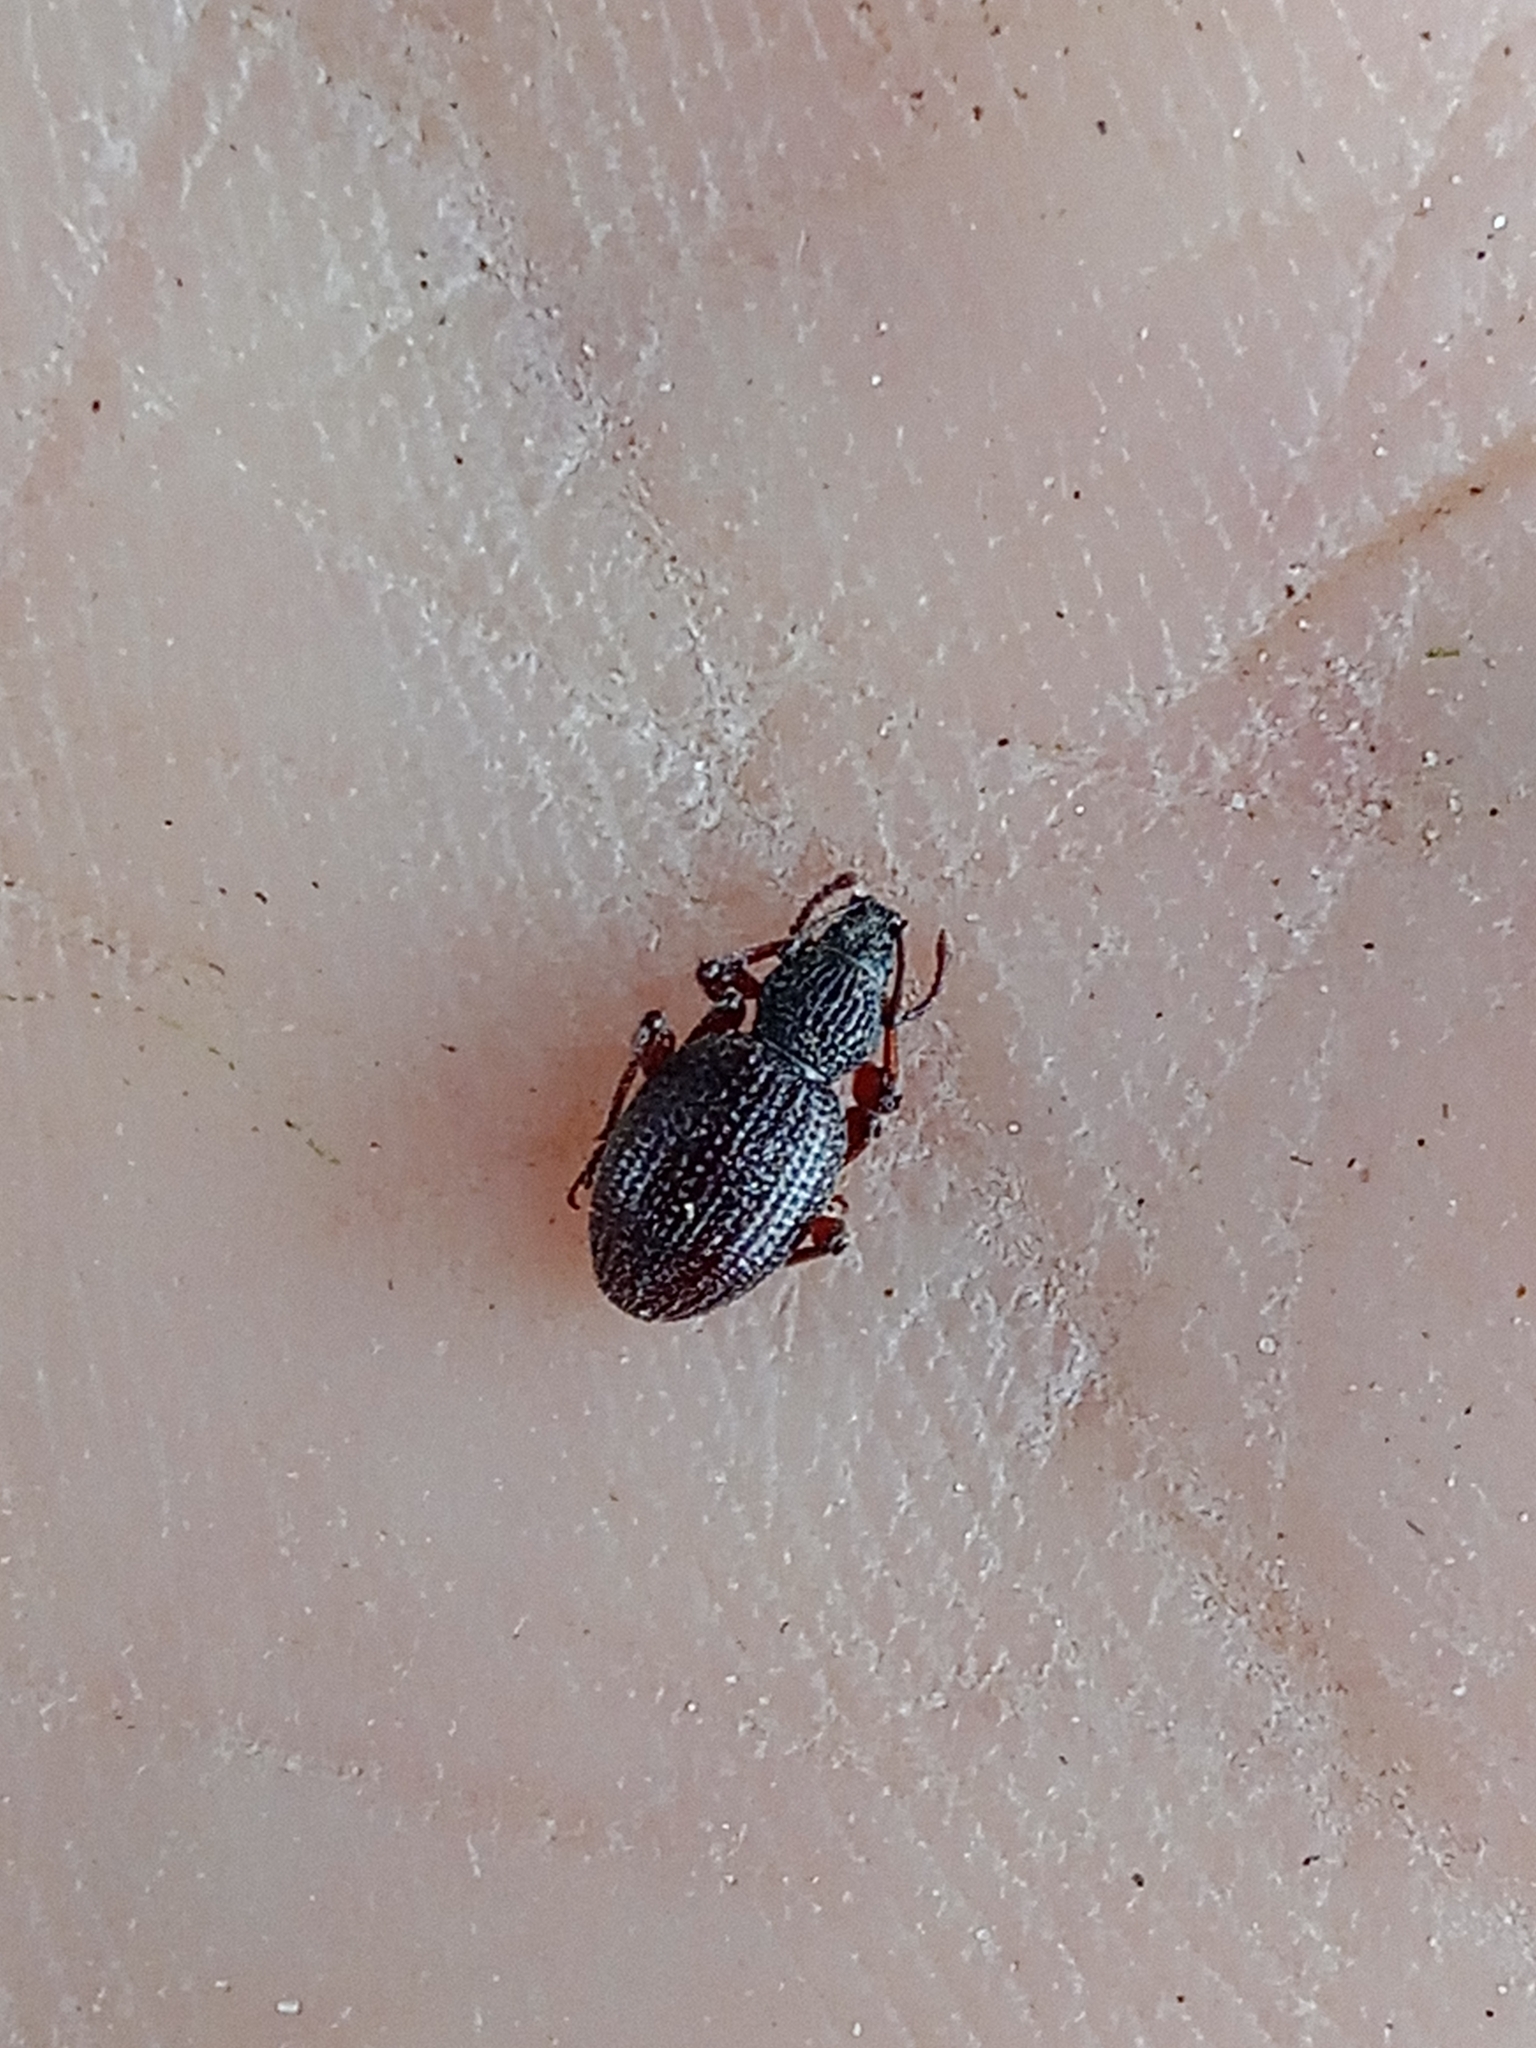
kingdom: Animalia
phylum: Arthropoda
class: Insecta
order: Coleoptera
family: Curculionidae
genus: Otiorhynchus
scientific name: Otiorhynchus ovatus
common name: Strawberry root weevil
